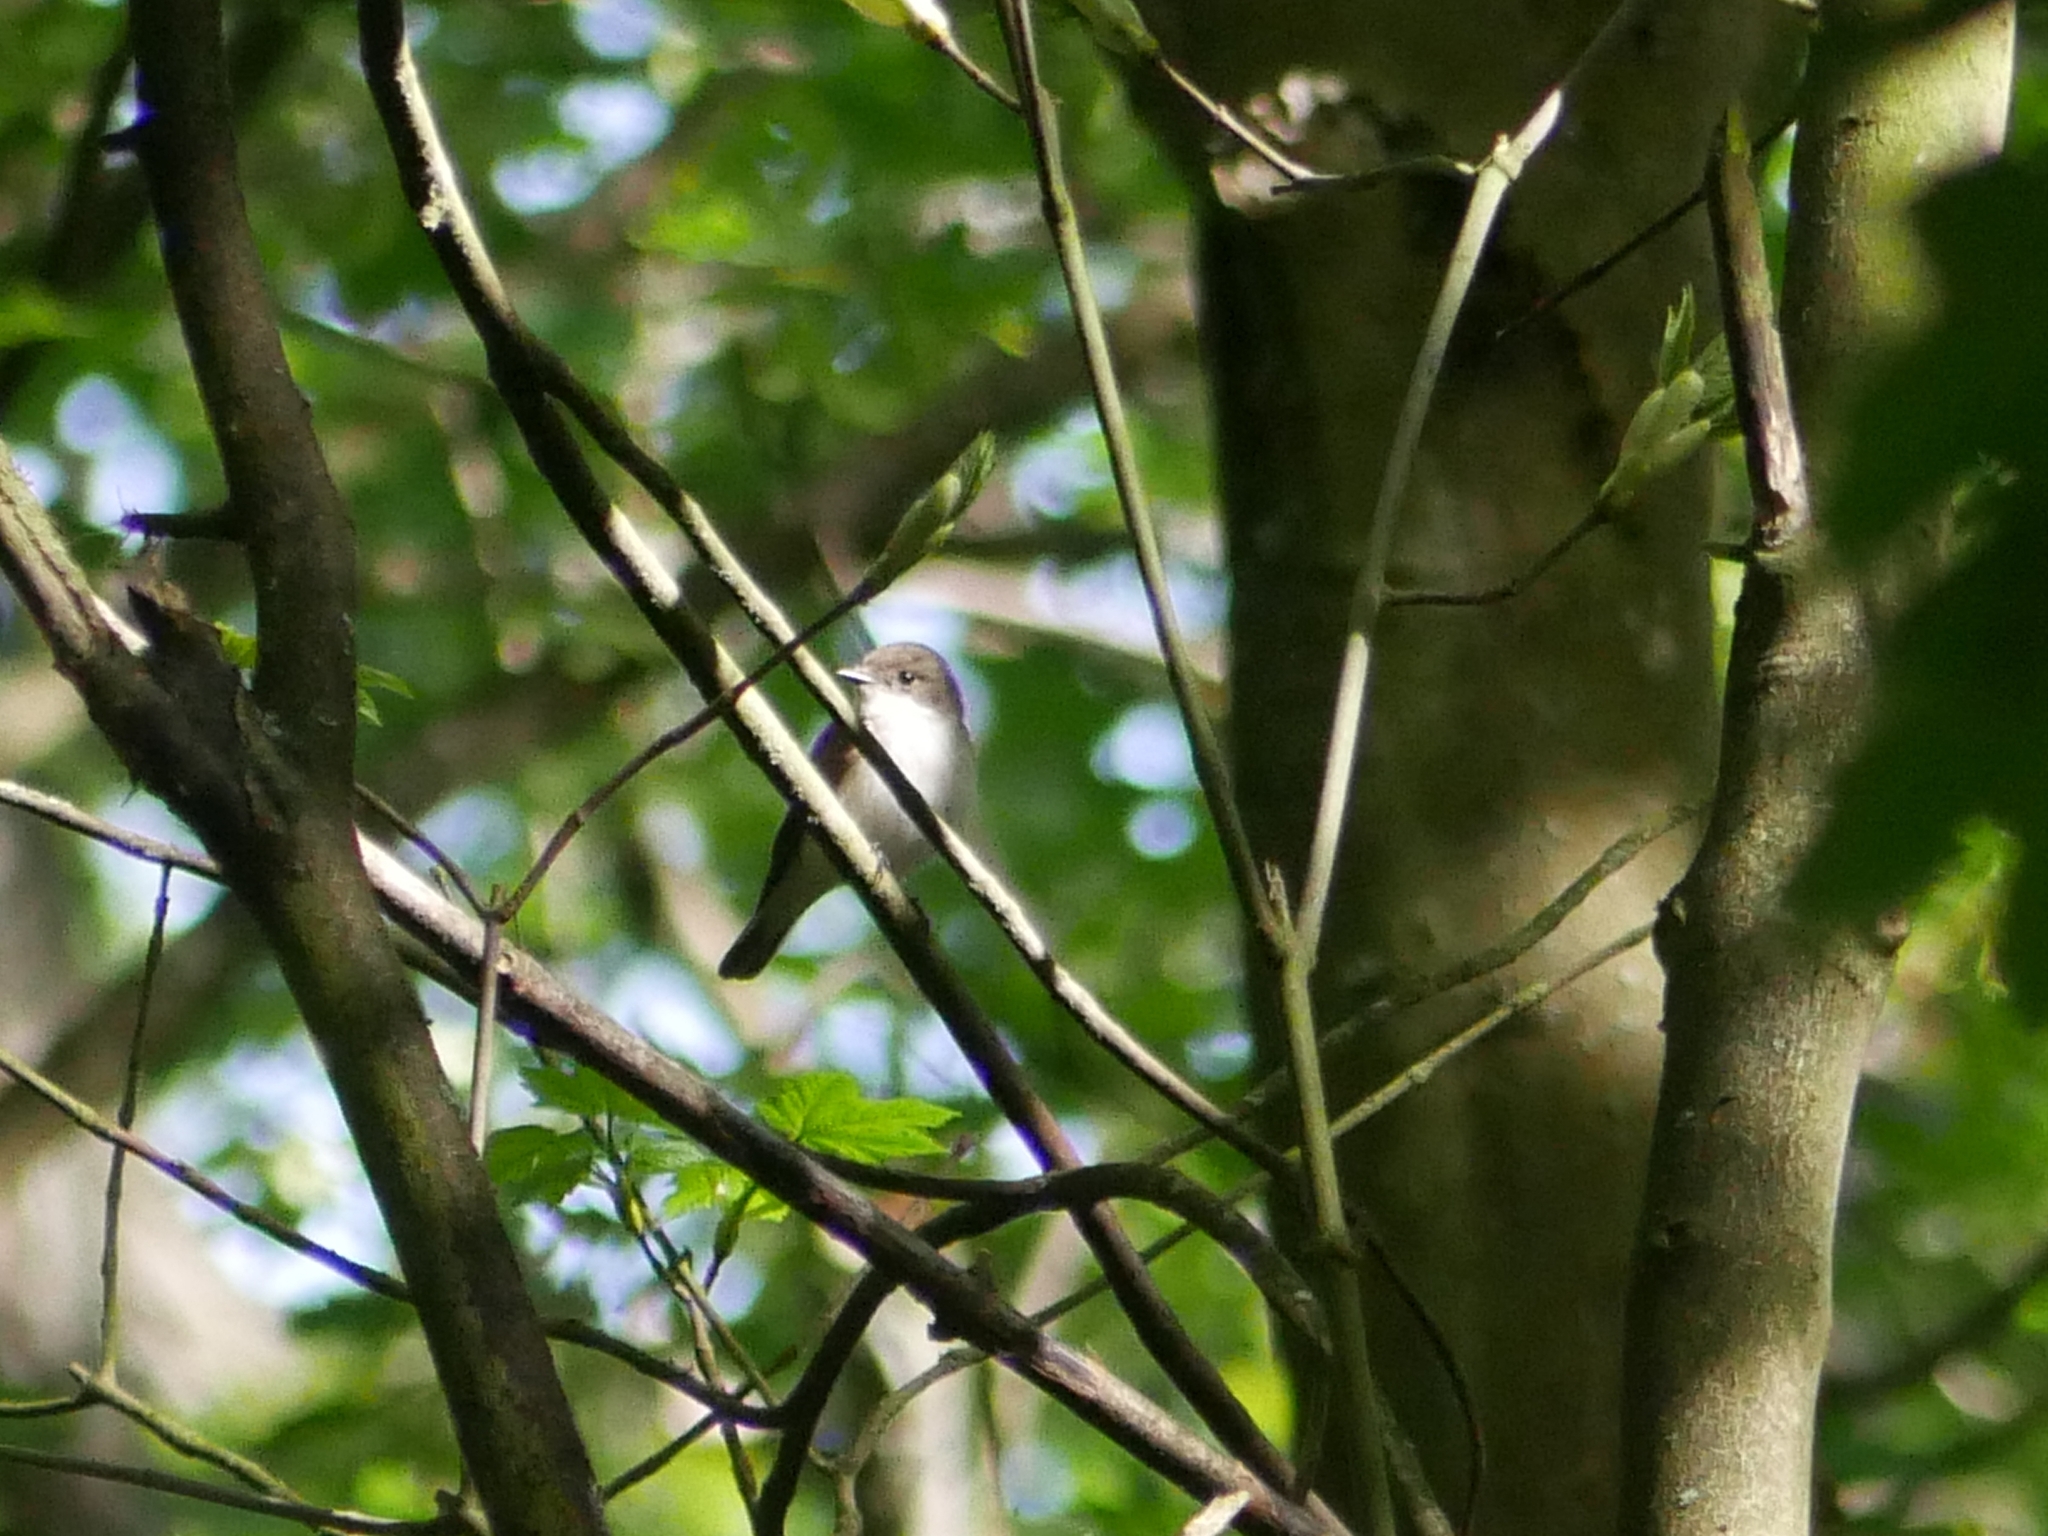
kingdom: Animalia
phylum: Chordata
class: Aves
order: Passeriformes
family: Muscicapidae
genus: Ficedula
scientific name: Ficedula hypoleuca
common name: European pied flycatcher
